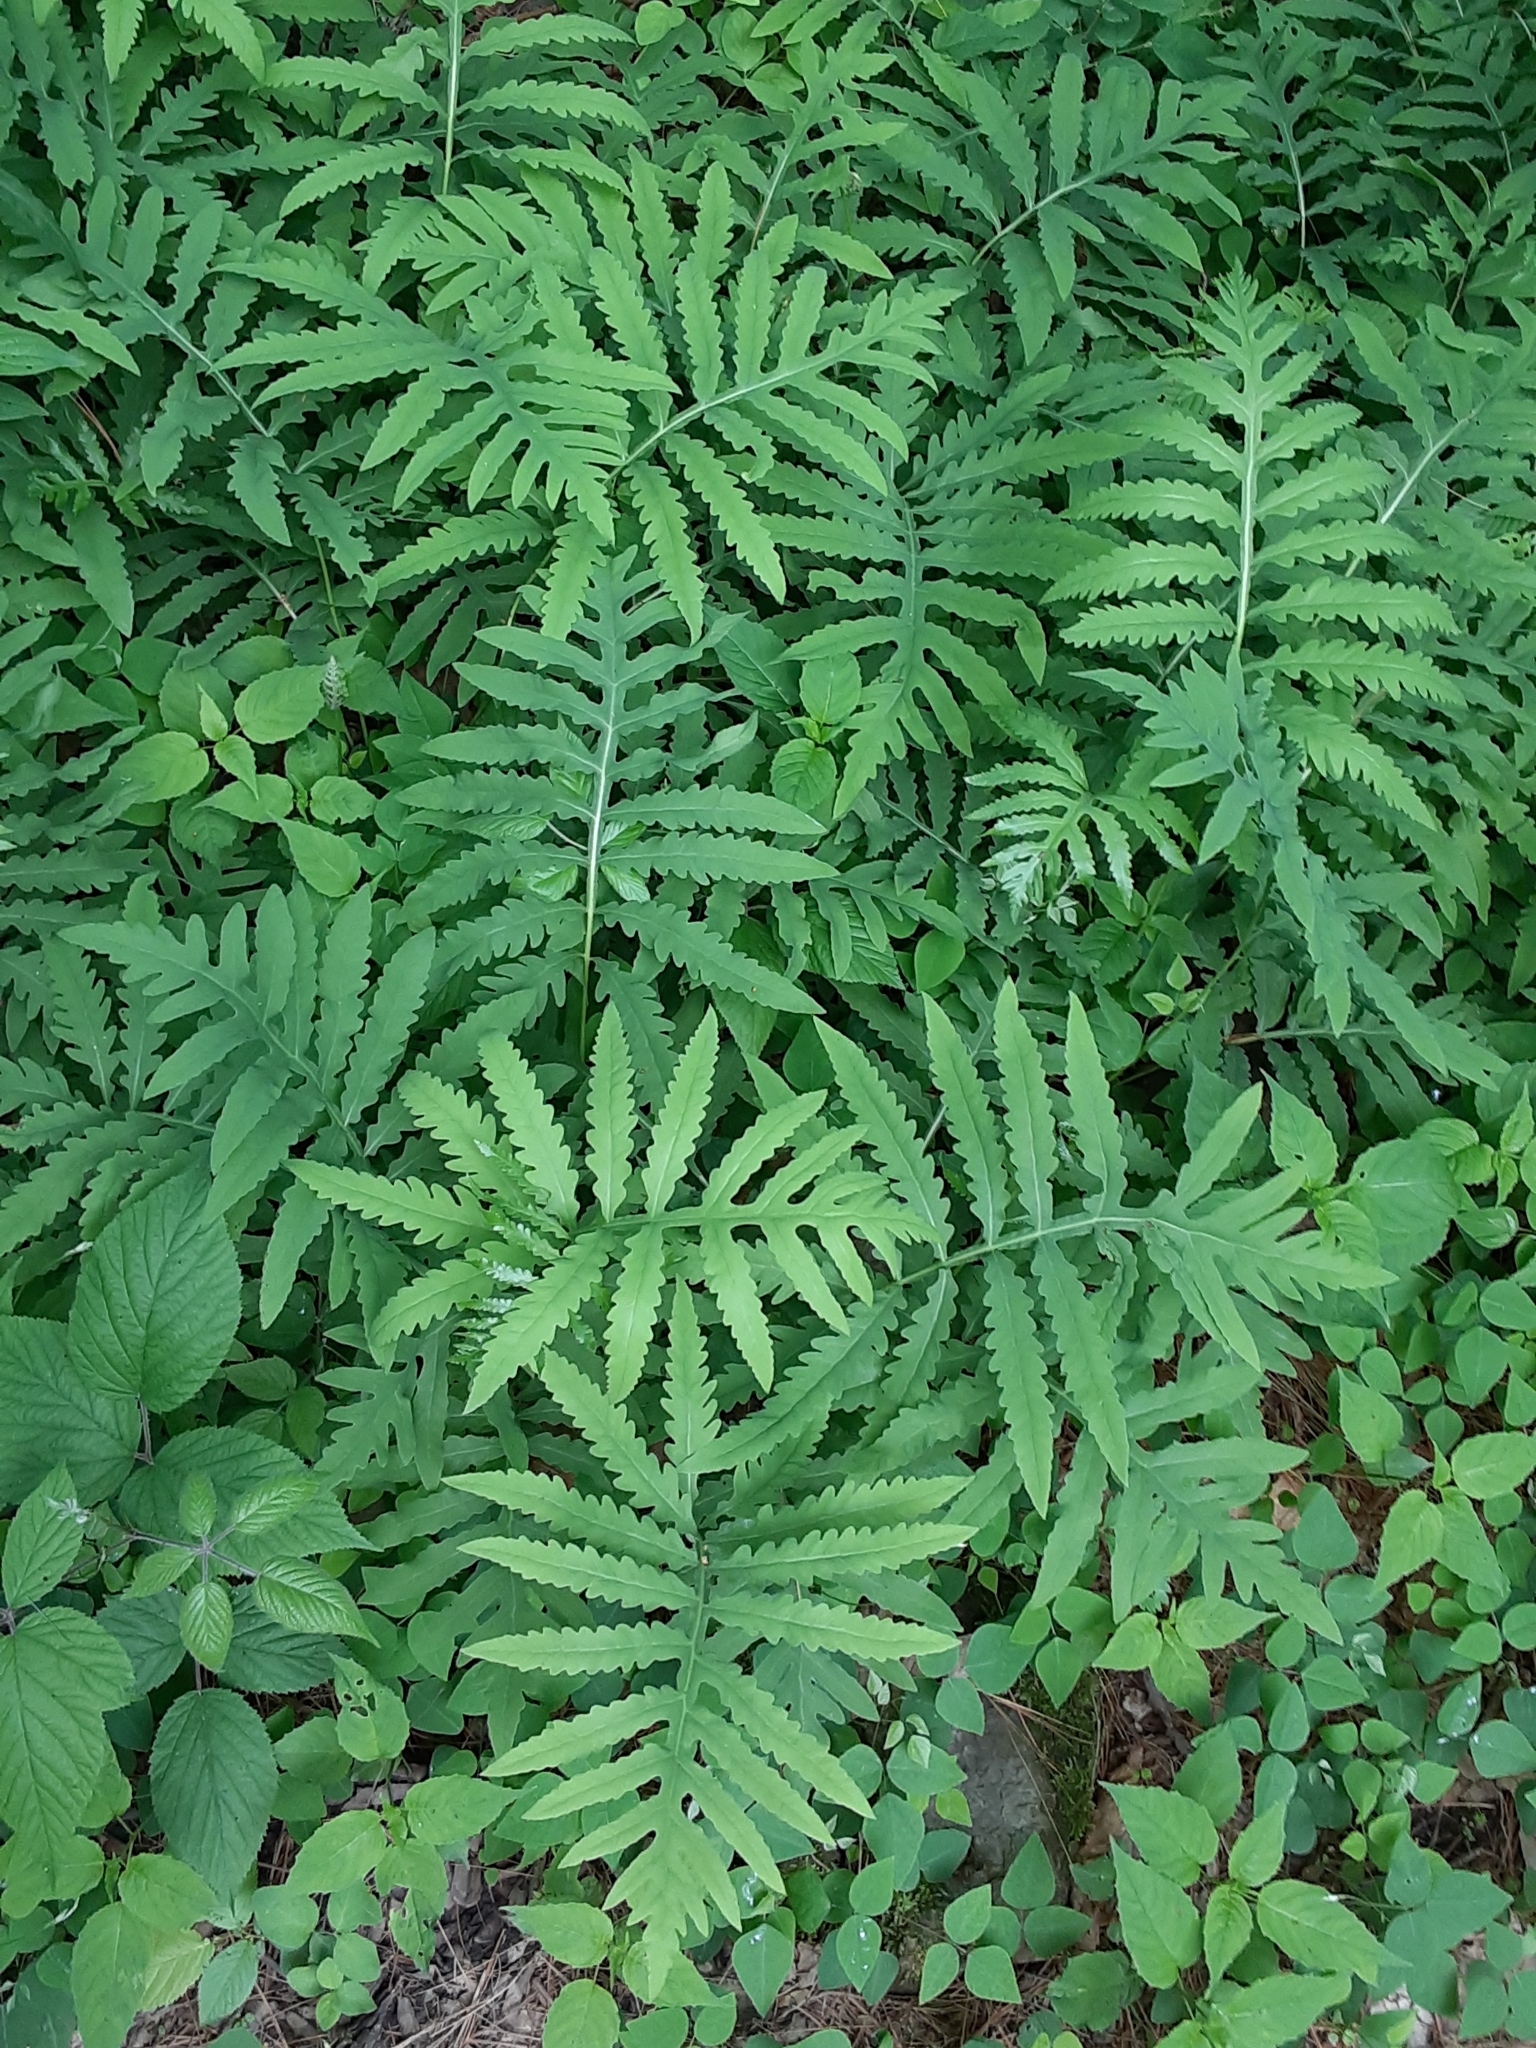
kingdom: Plantae
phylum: Tracheophyta
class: Polypodiopsida
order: Polypodiales
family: Onocleaceae
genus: Onoclea
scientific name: Onoclea sensibilis
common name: Sensitive fern
